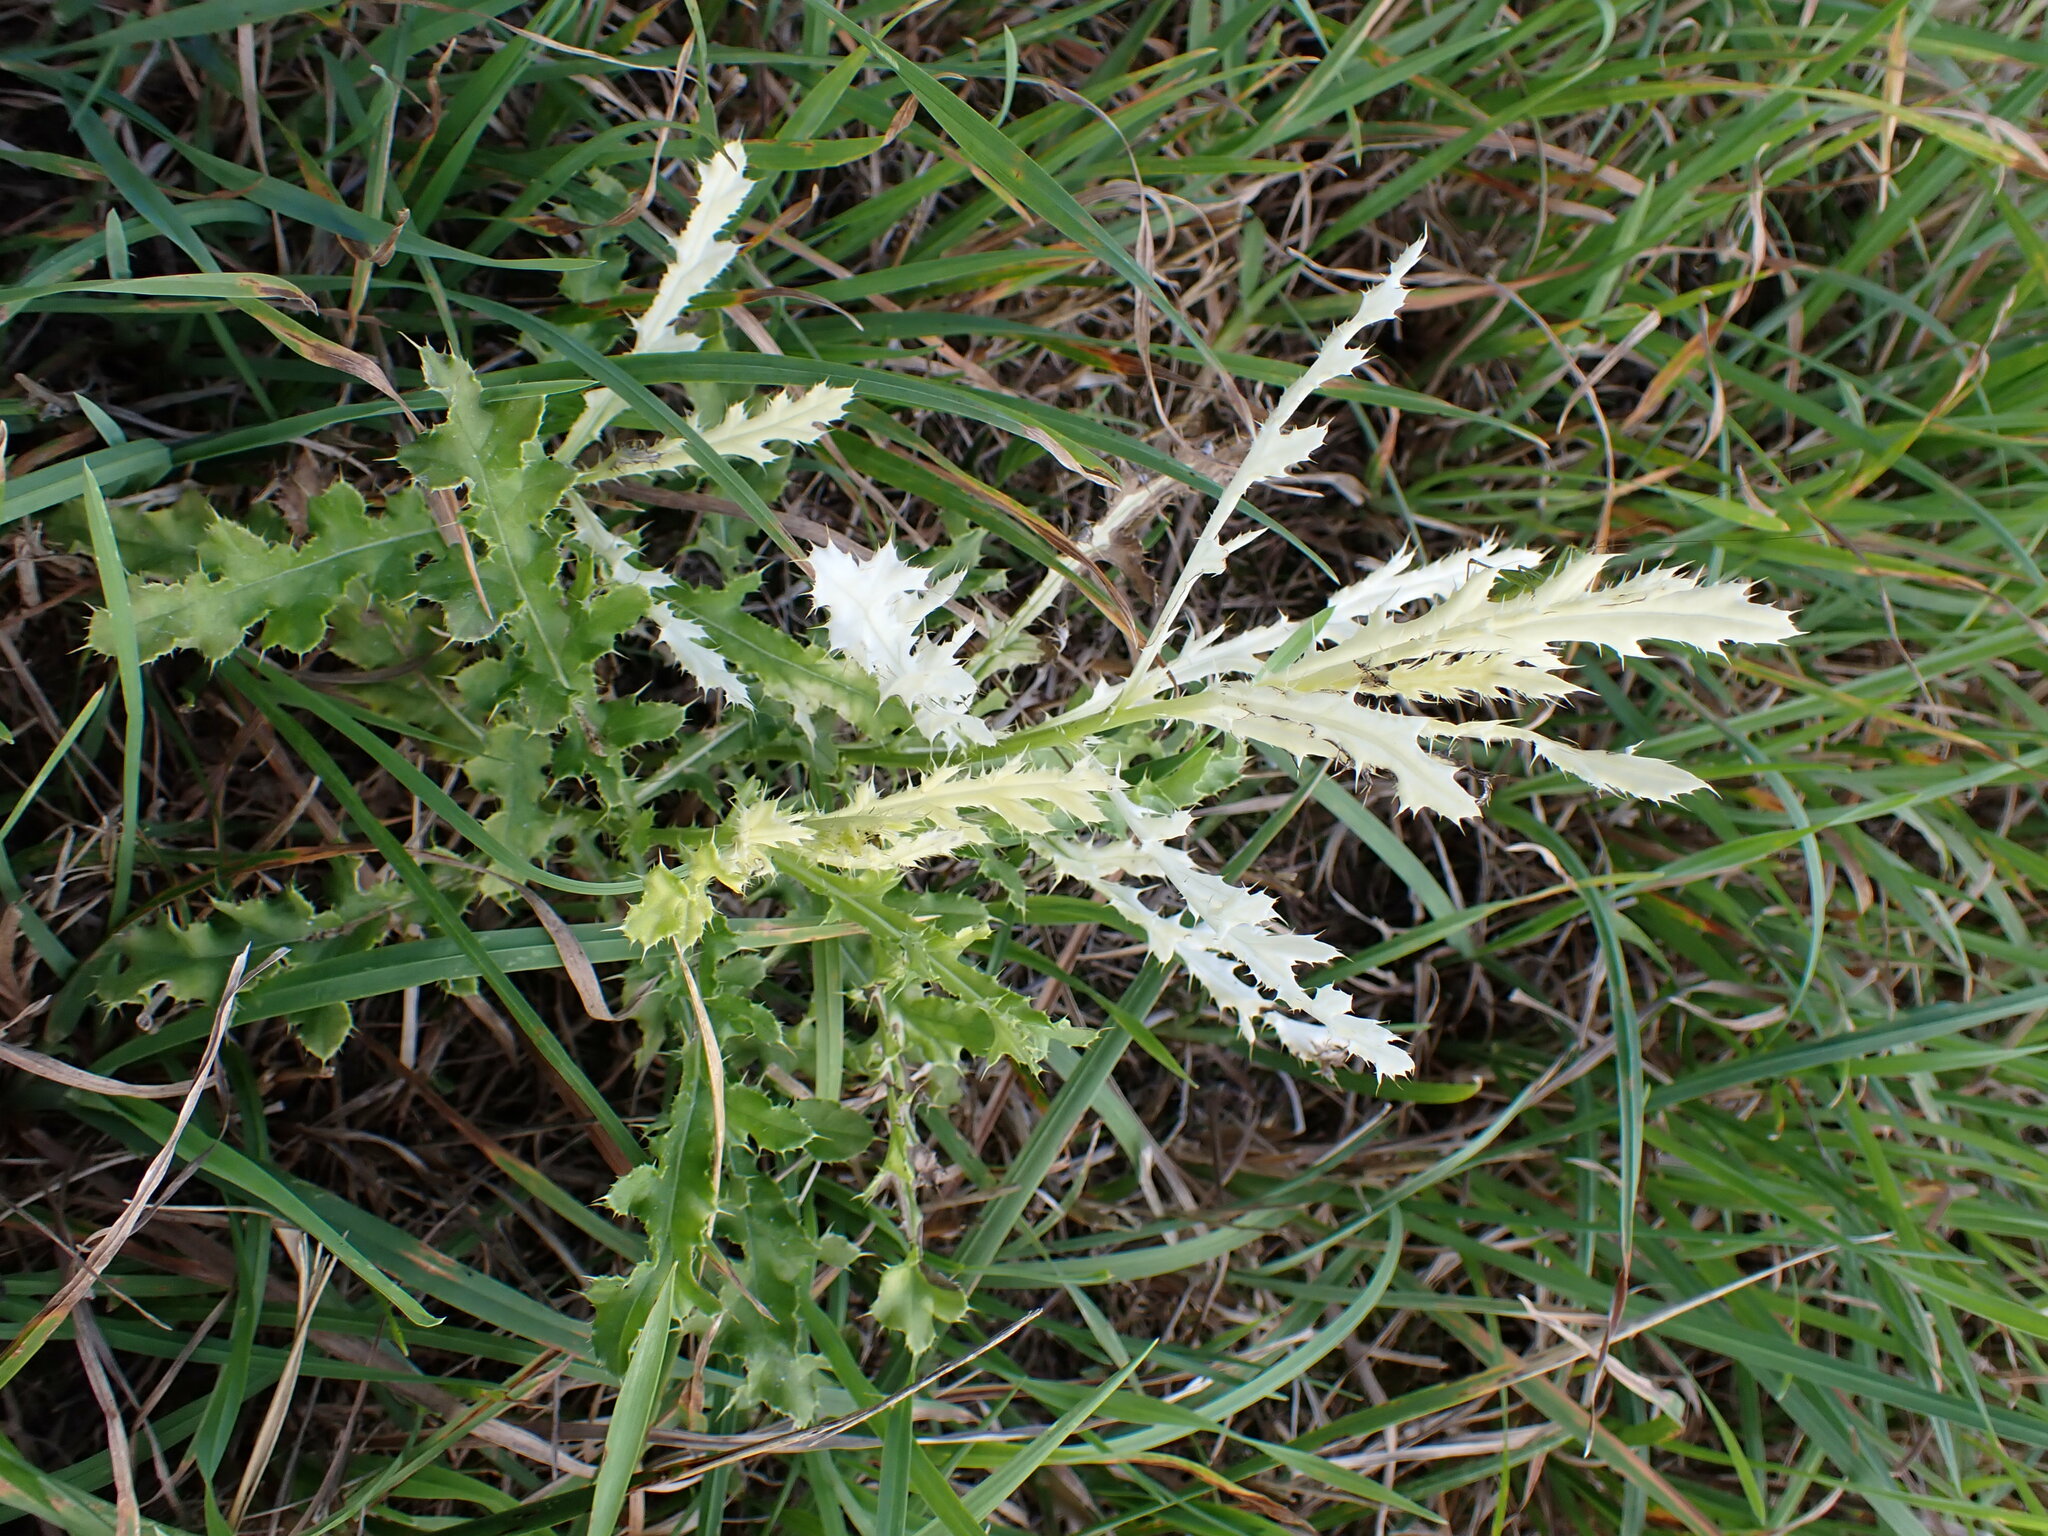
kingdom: Bacteria
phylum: Proteobacteria
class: Gammaproteobacteria
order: Pseudomonadales
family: Pseudomonadaceae
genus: Pseudomonas
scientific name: Pseudomonas syringae
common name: Bacterial speck
